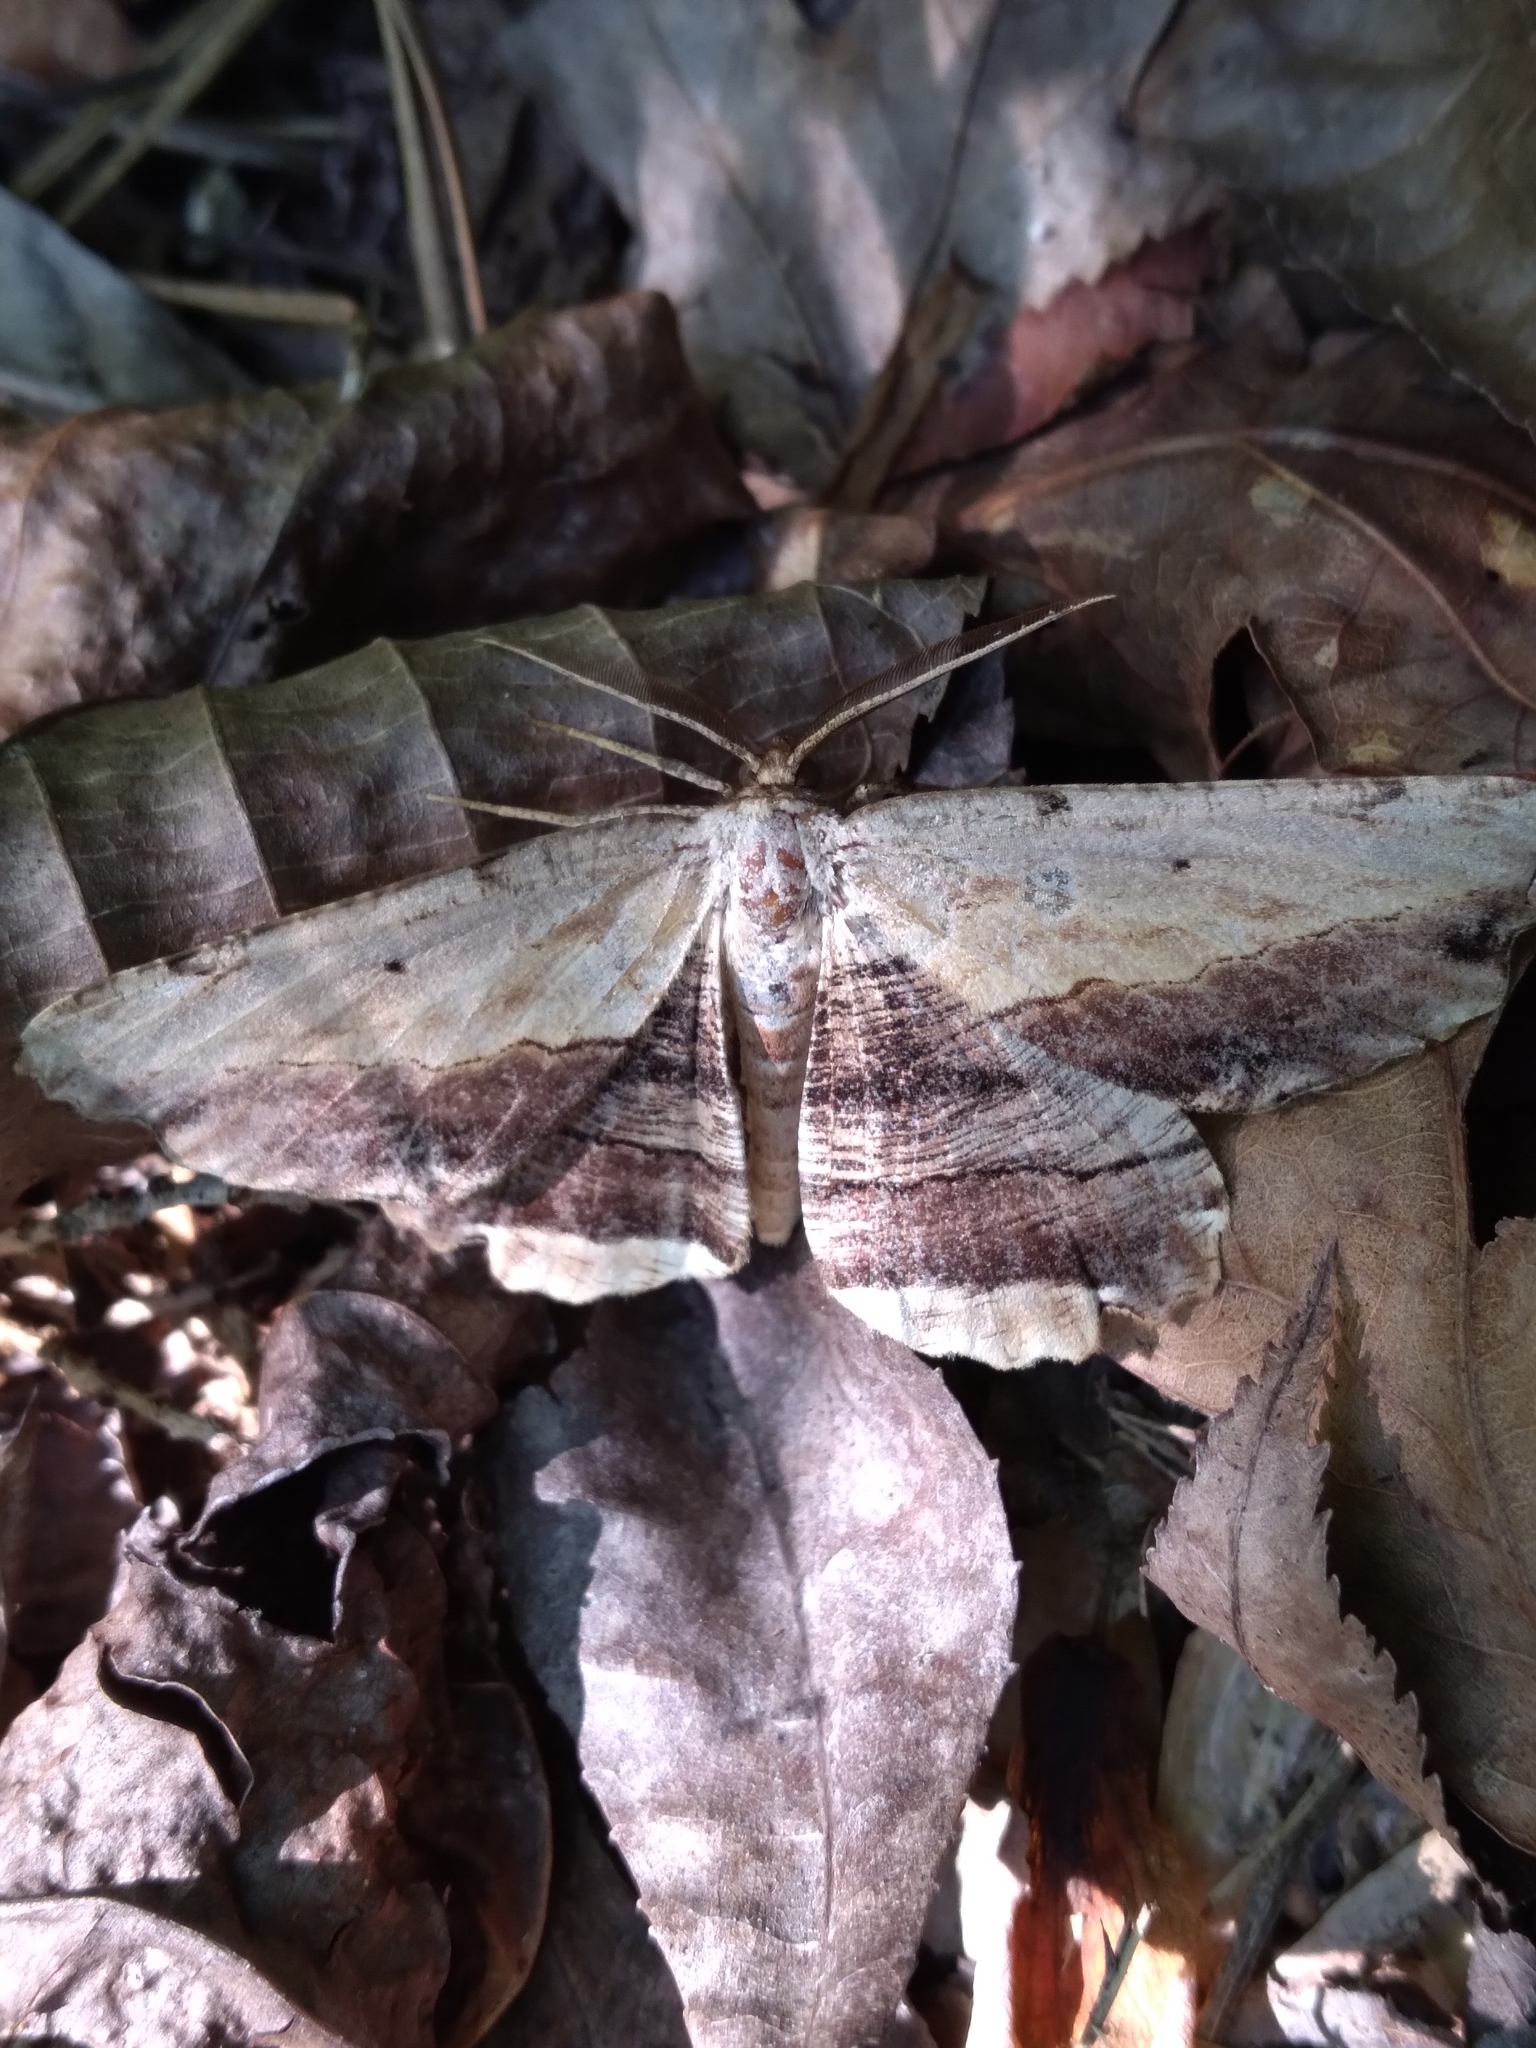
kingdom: Animalia
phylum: Arthropoda
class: Insecta
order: Lepidoptera
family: Geometridae
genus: Lytrosis
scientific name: Lytrosis unitaria
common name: Common lytrosis
